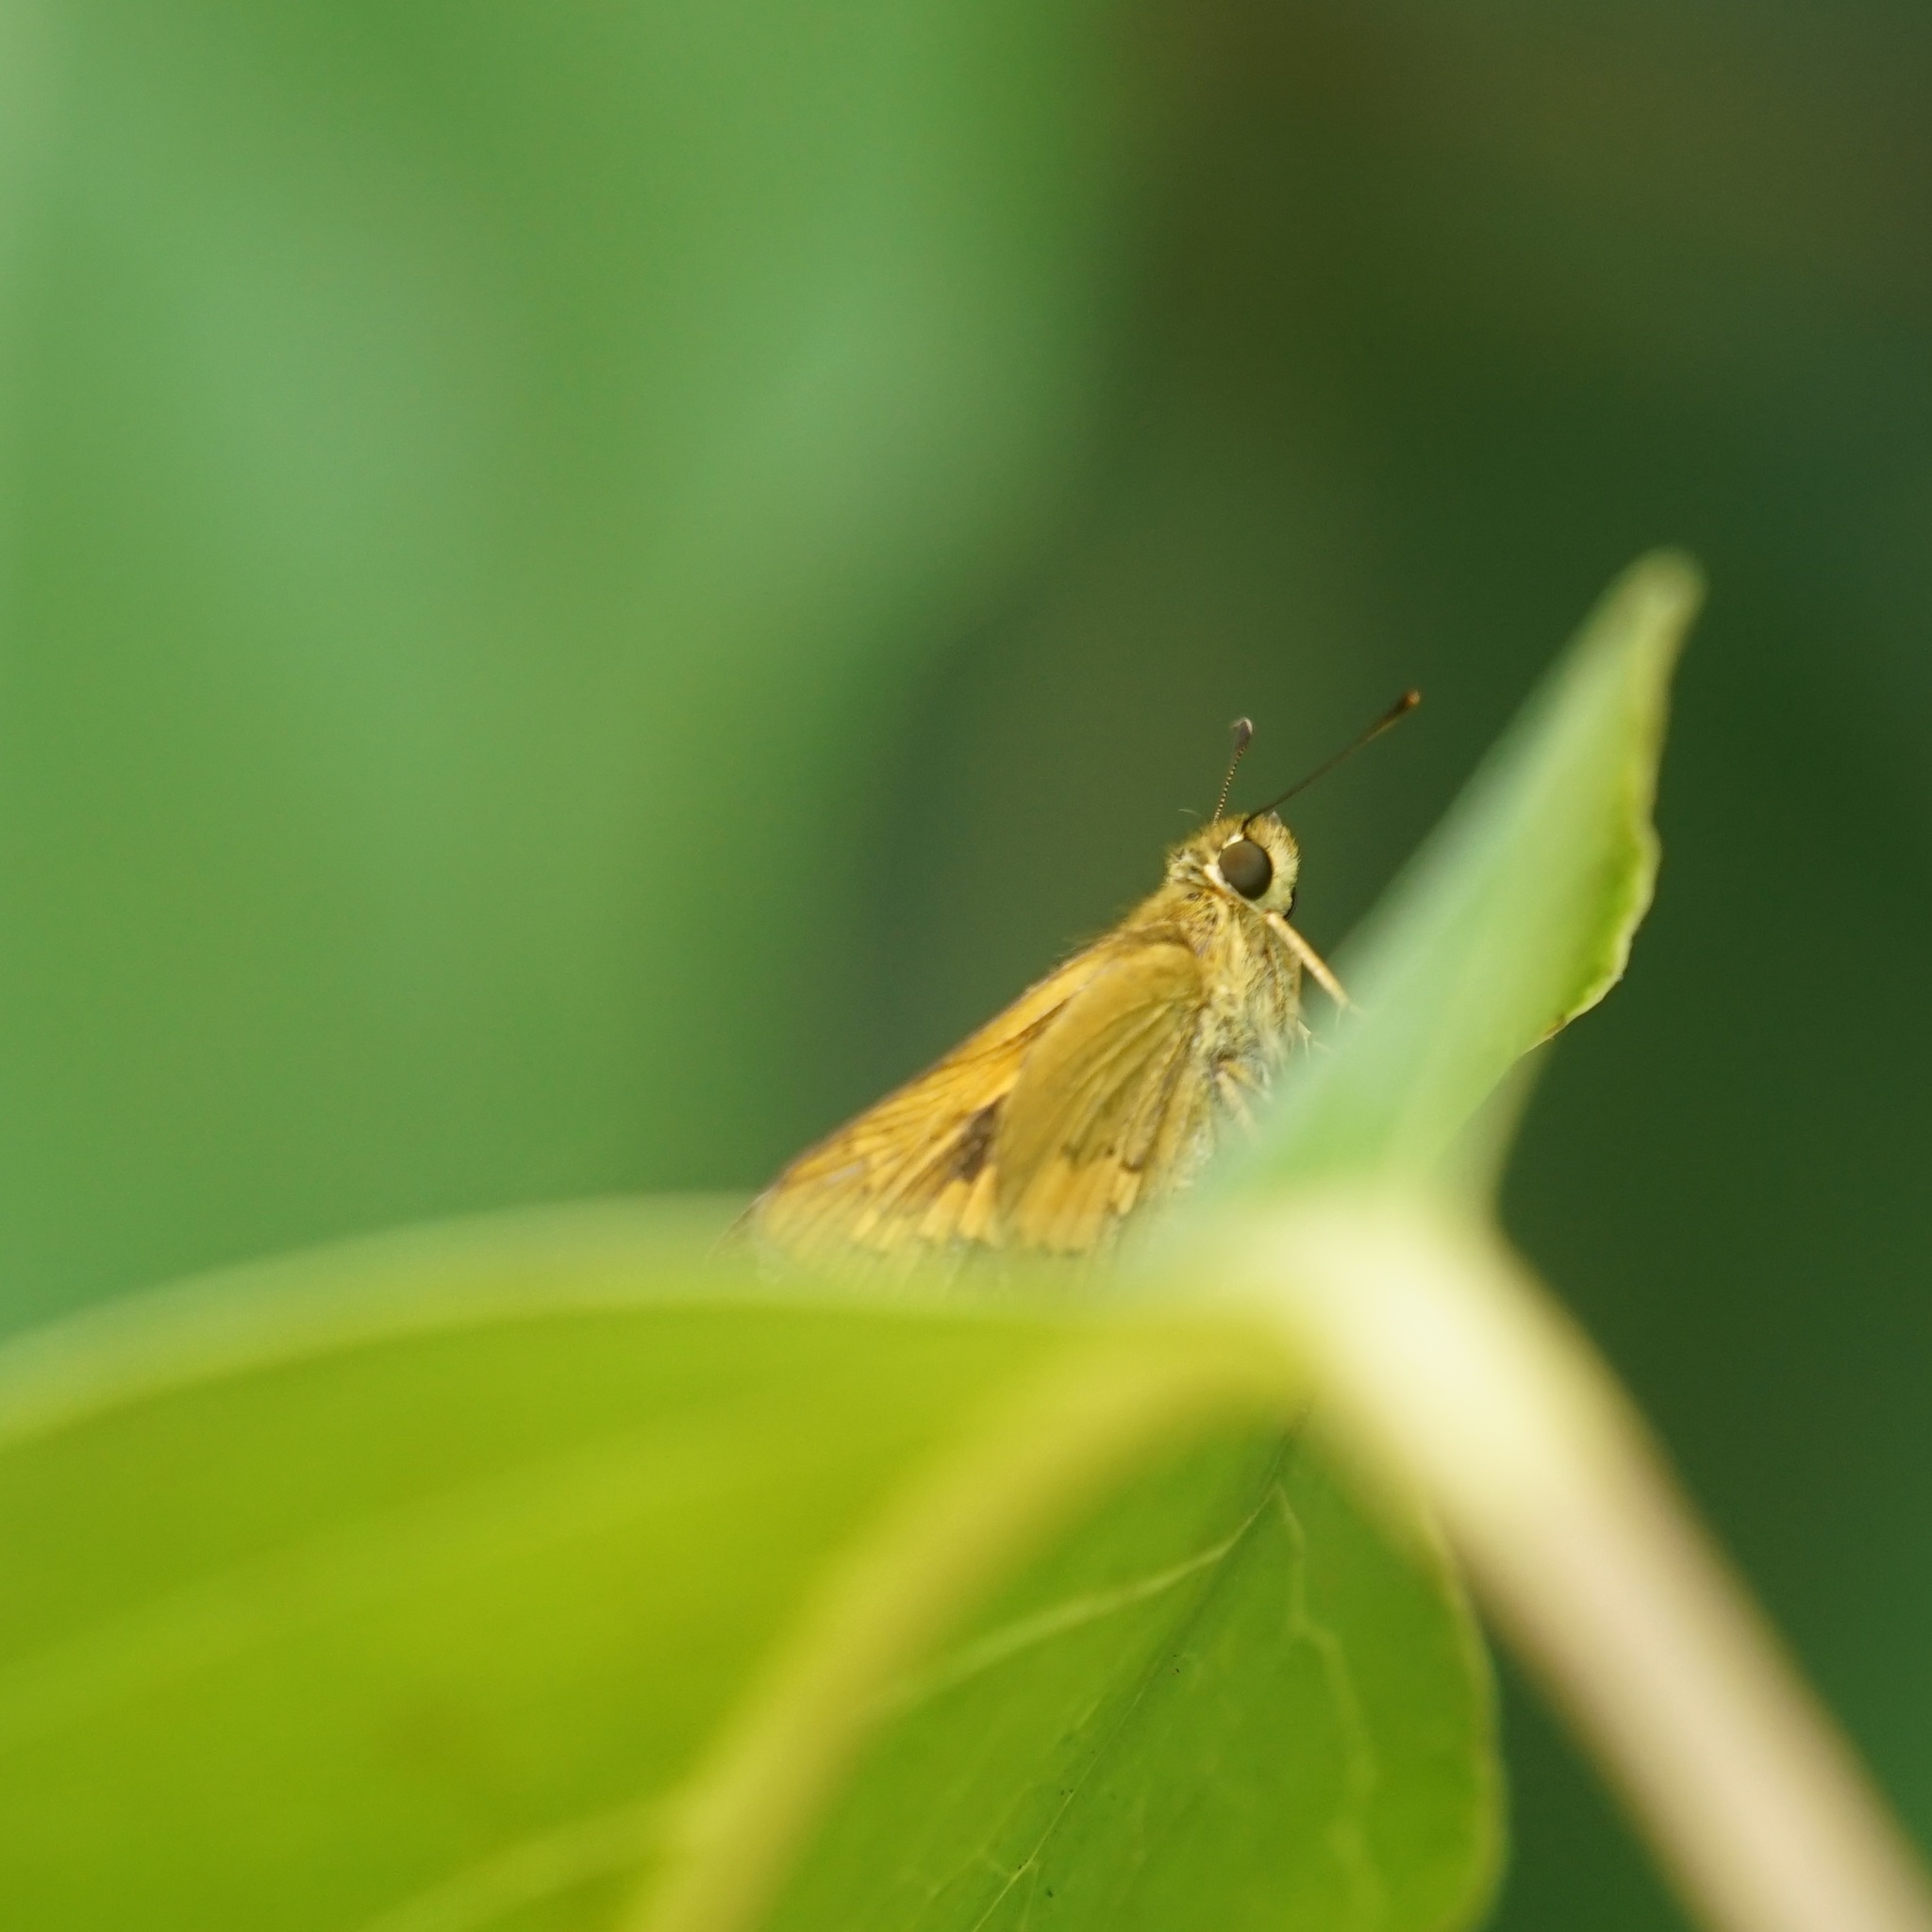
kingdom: Animalia
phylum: Arthropoda
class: Insecta
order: Lepidoptera
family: Hesperiidae
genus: Telicota
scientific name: Telicota paceka
